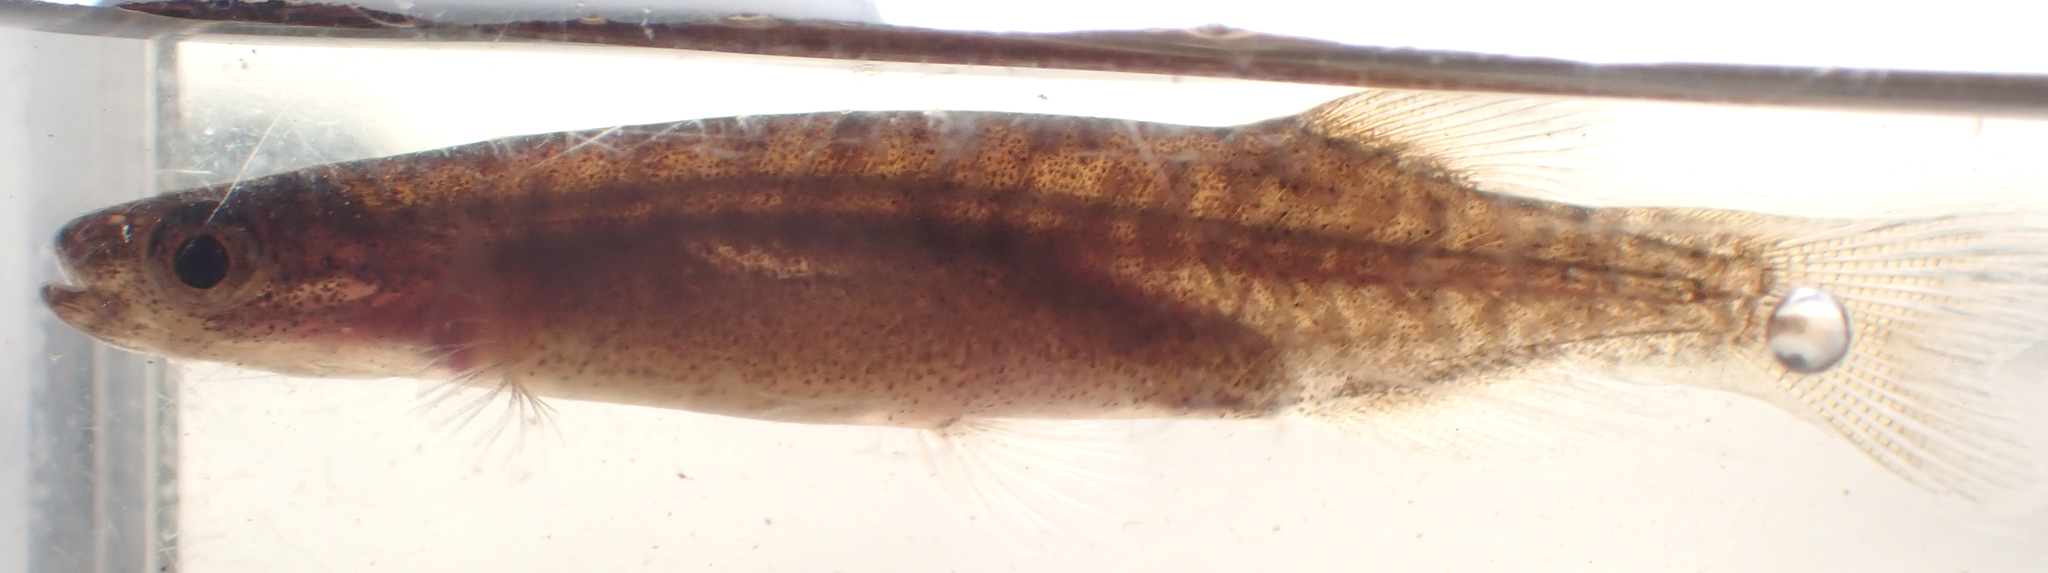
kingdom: Animalia
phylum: Chordata
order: Osmeriformes
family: Galaxiidae
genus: Neochanna
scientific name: Neochanna rekohua
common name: Chathams galaxias
